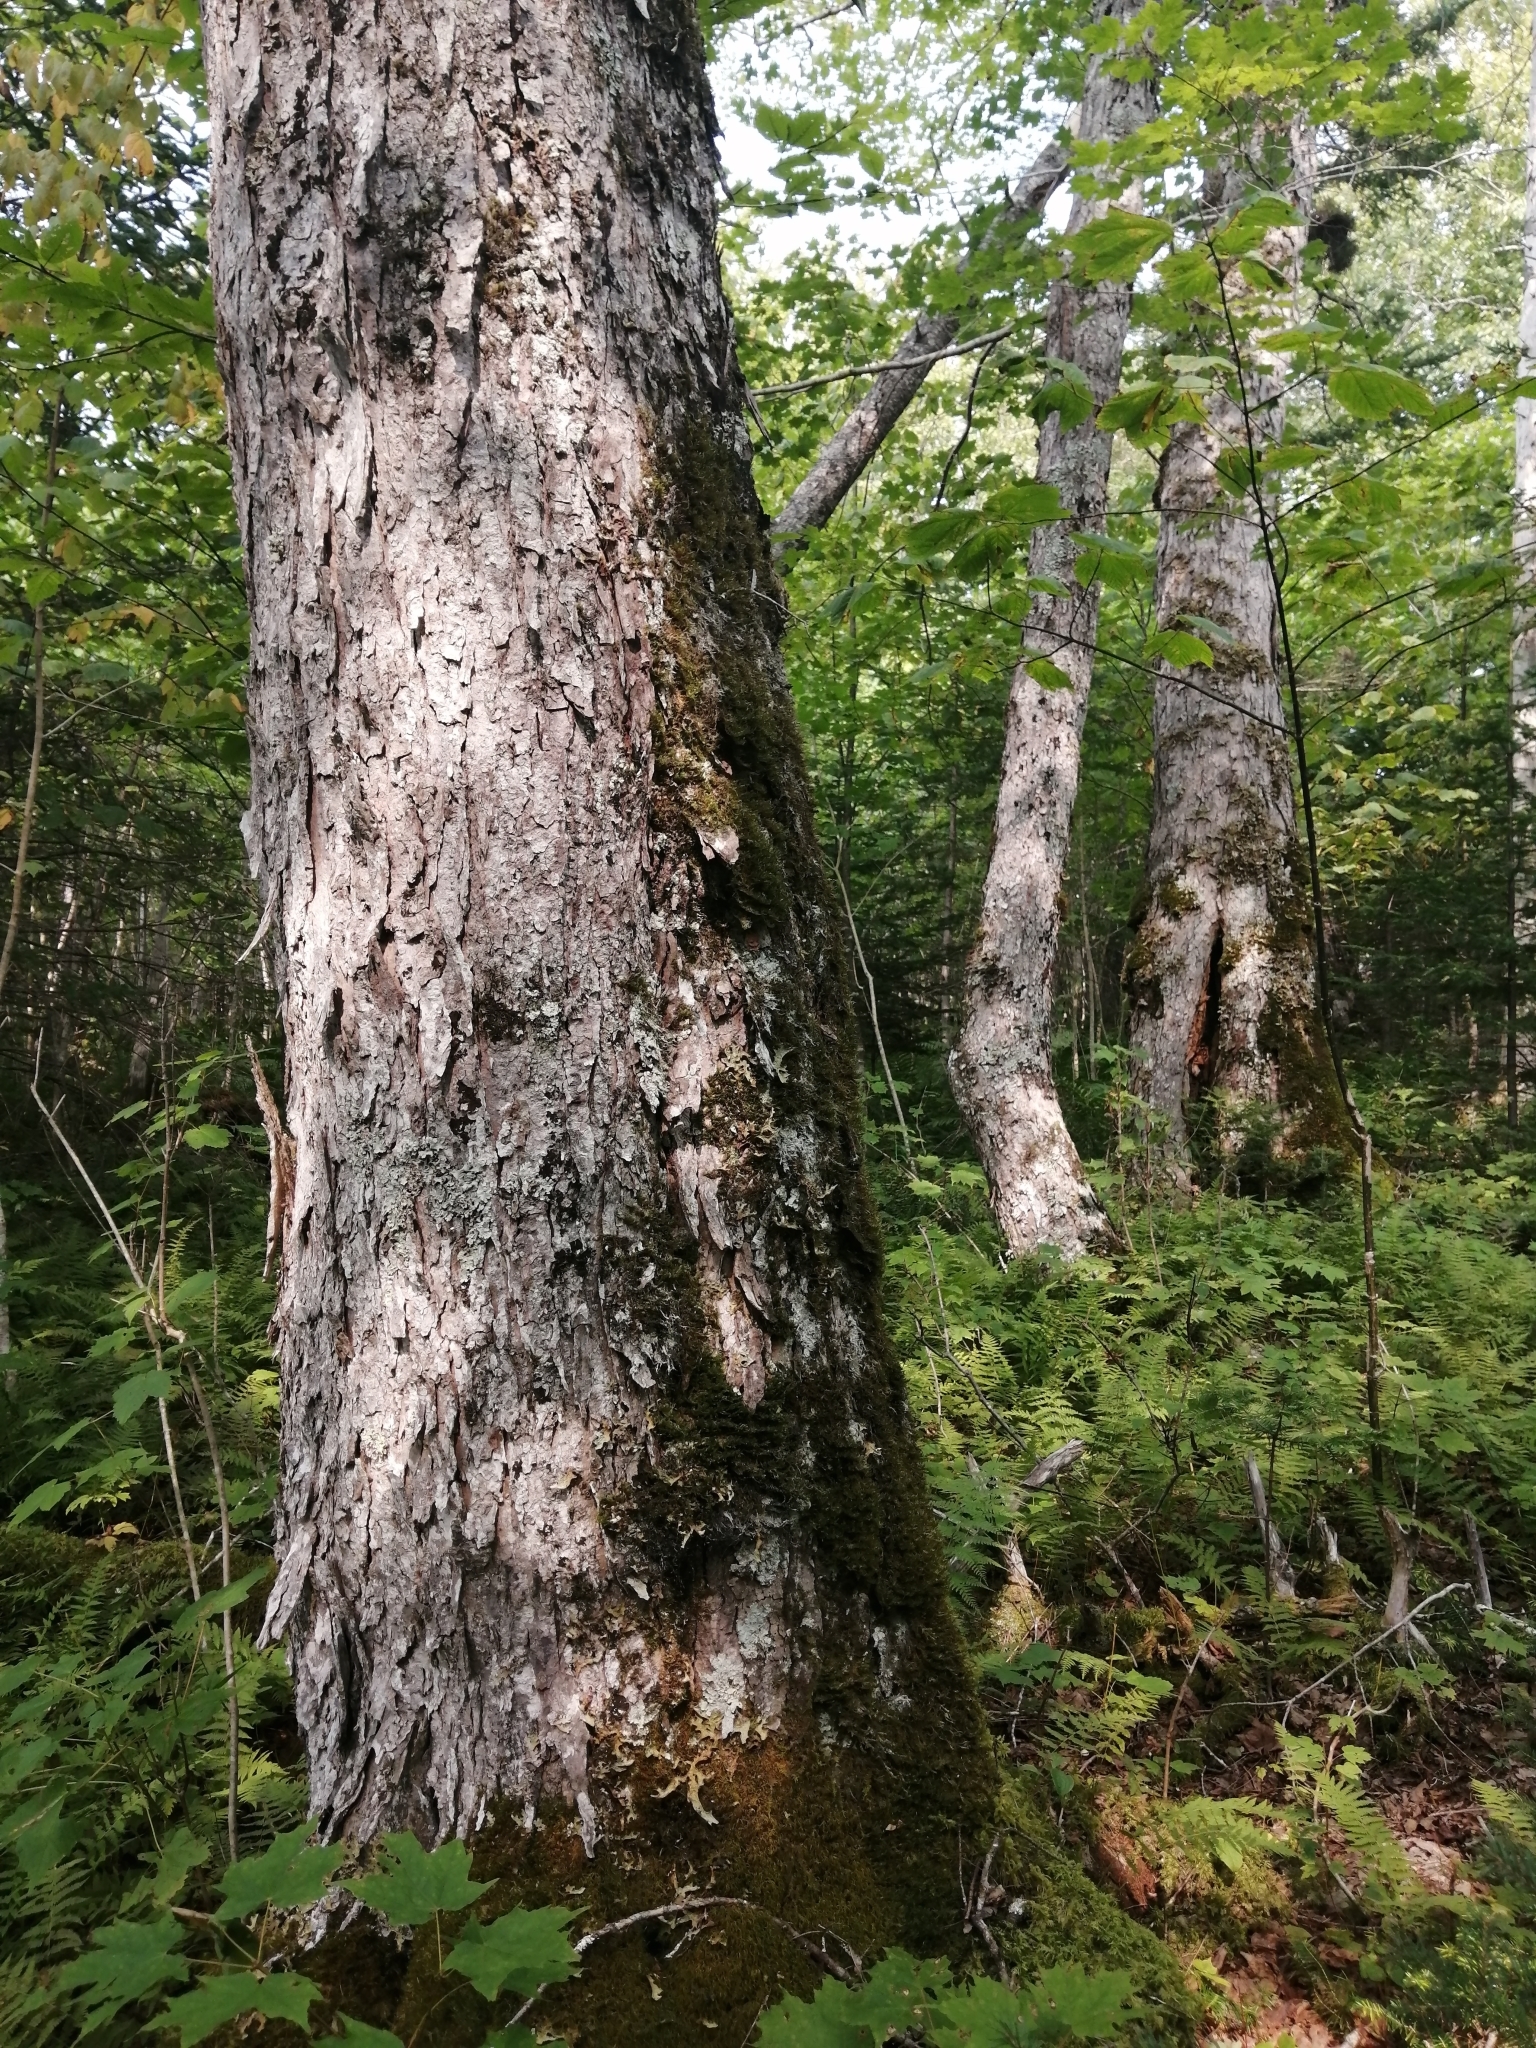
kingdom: Plantae
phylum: Tracheophyta
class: Magnoliopsida
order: Sapindales
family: Sapindaceae
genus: Acer
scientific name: Acer rubrum
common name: Red maple
